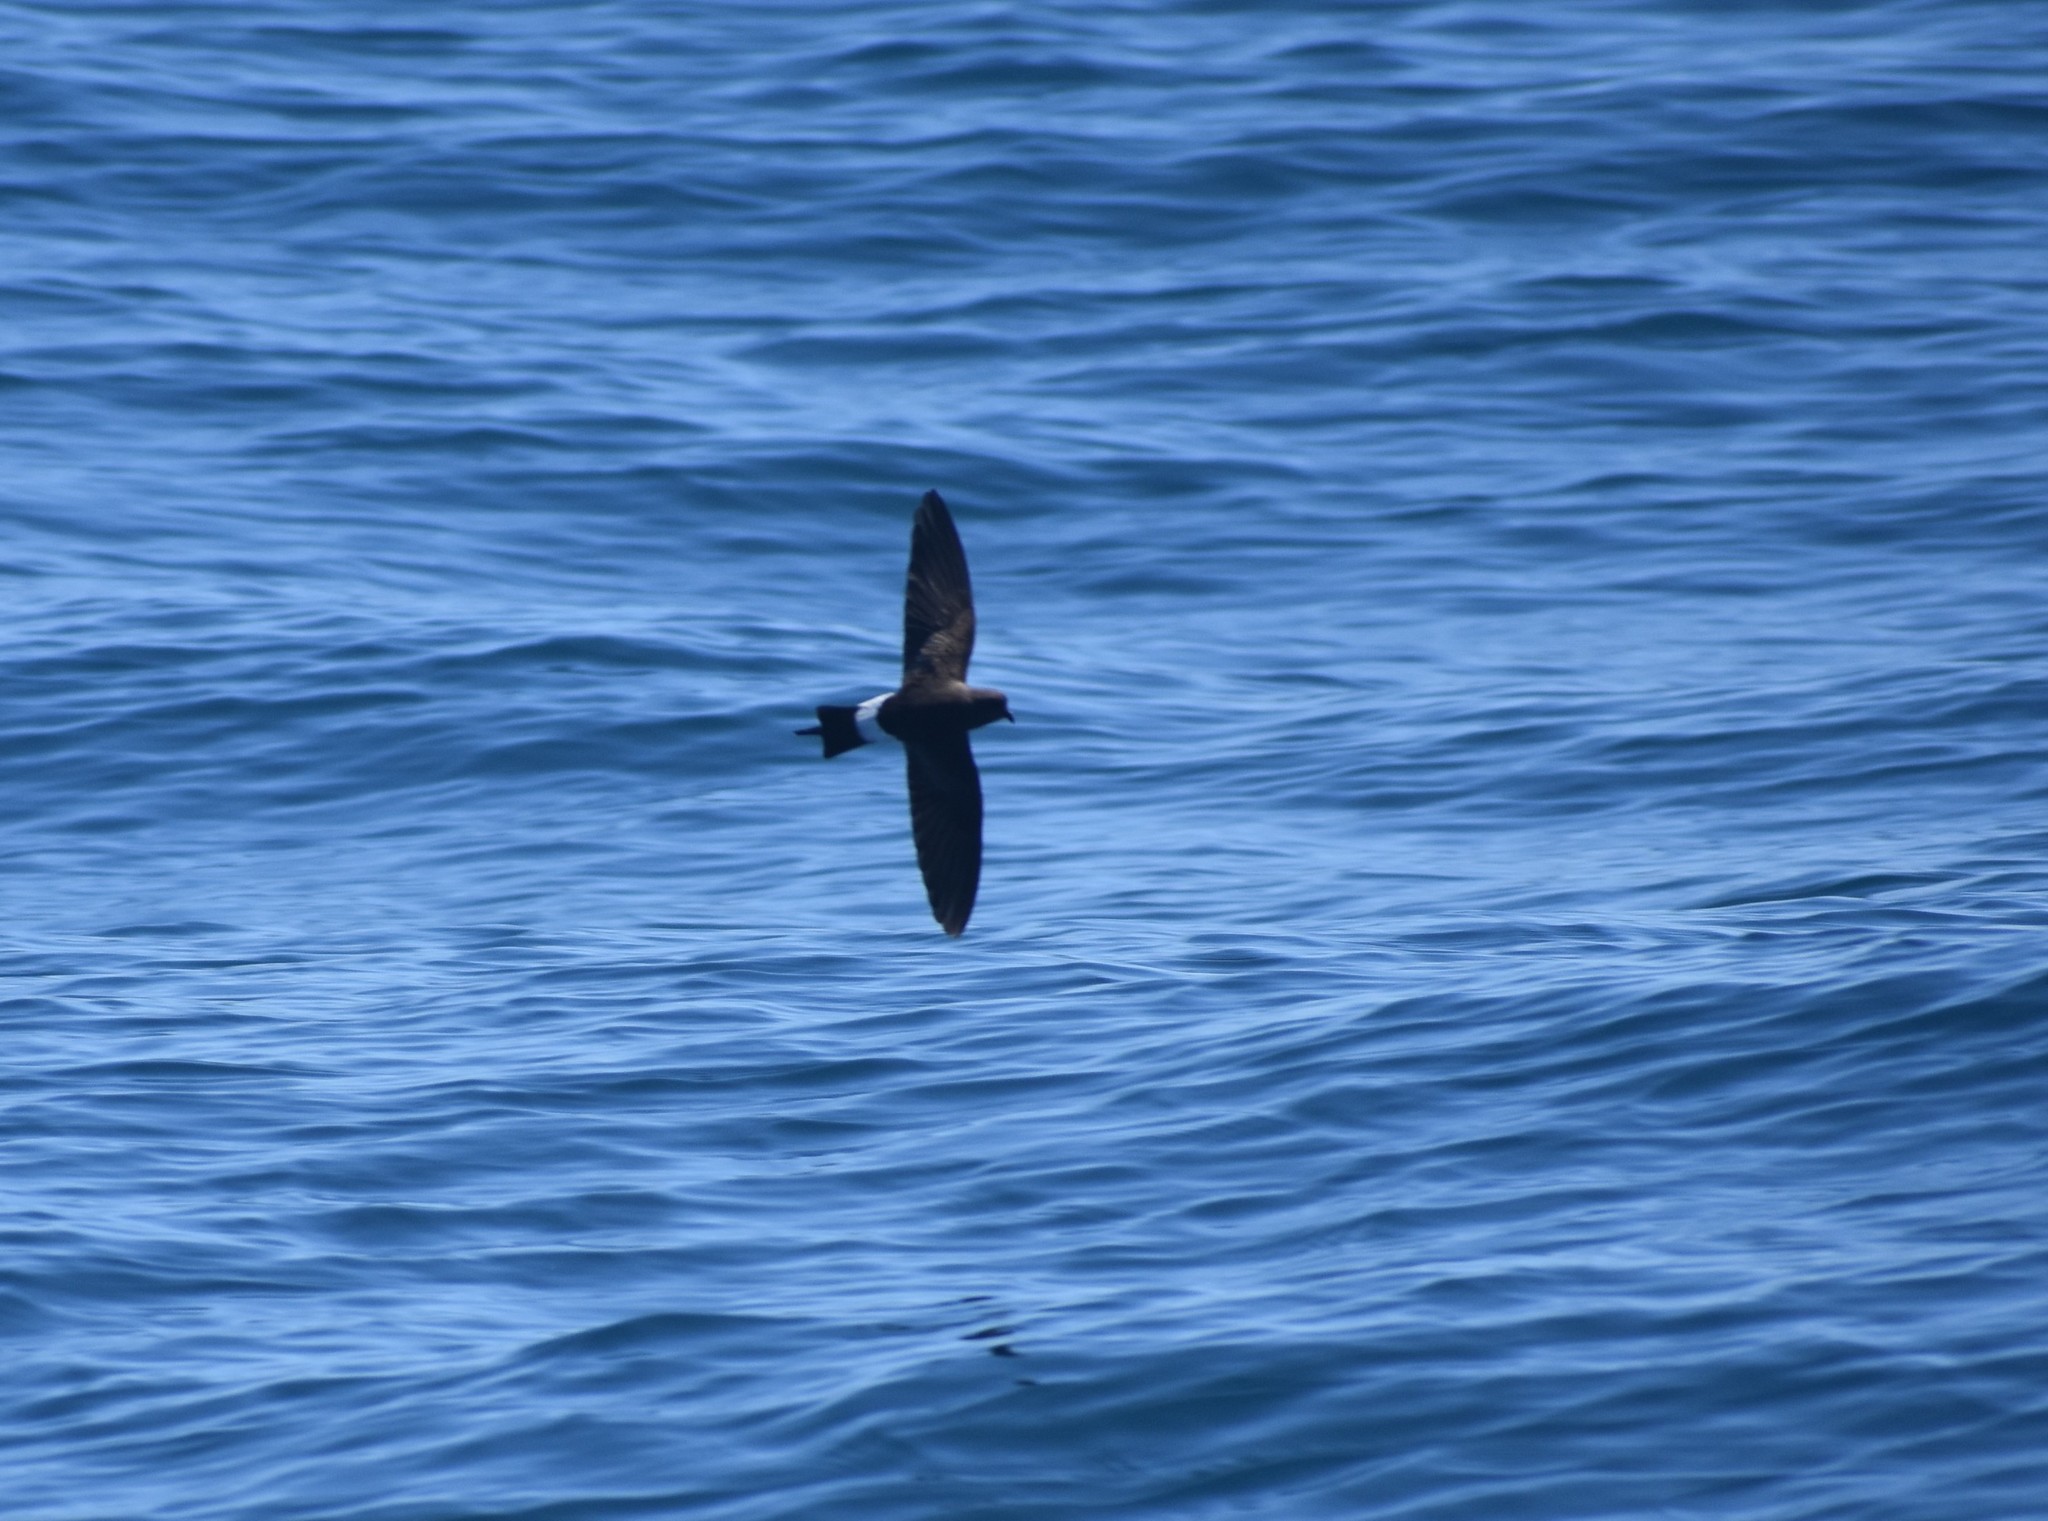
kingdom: Animalia
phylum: Chordata
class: Aves
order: Procellariiformes
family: Hydrobatidae
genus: Oceanites
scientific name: Oceanites oceanicus
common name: Wilson's storm petrel
